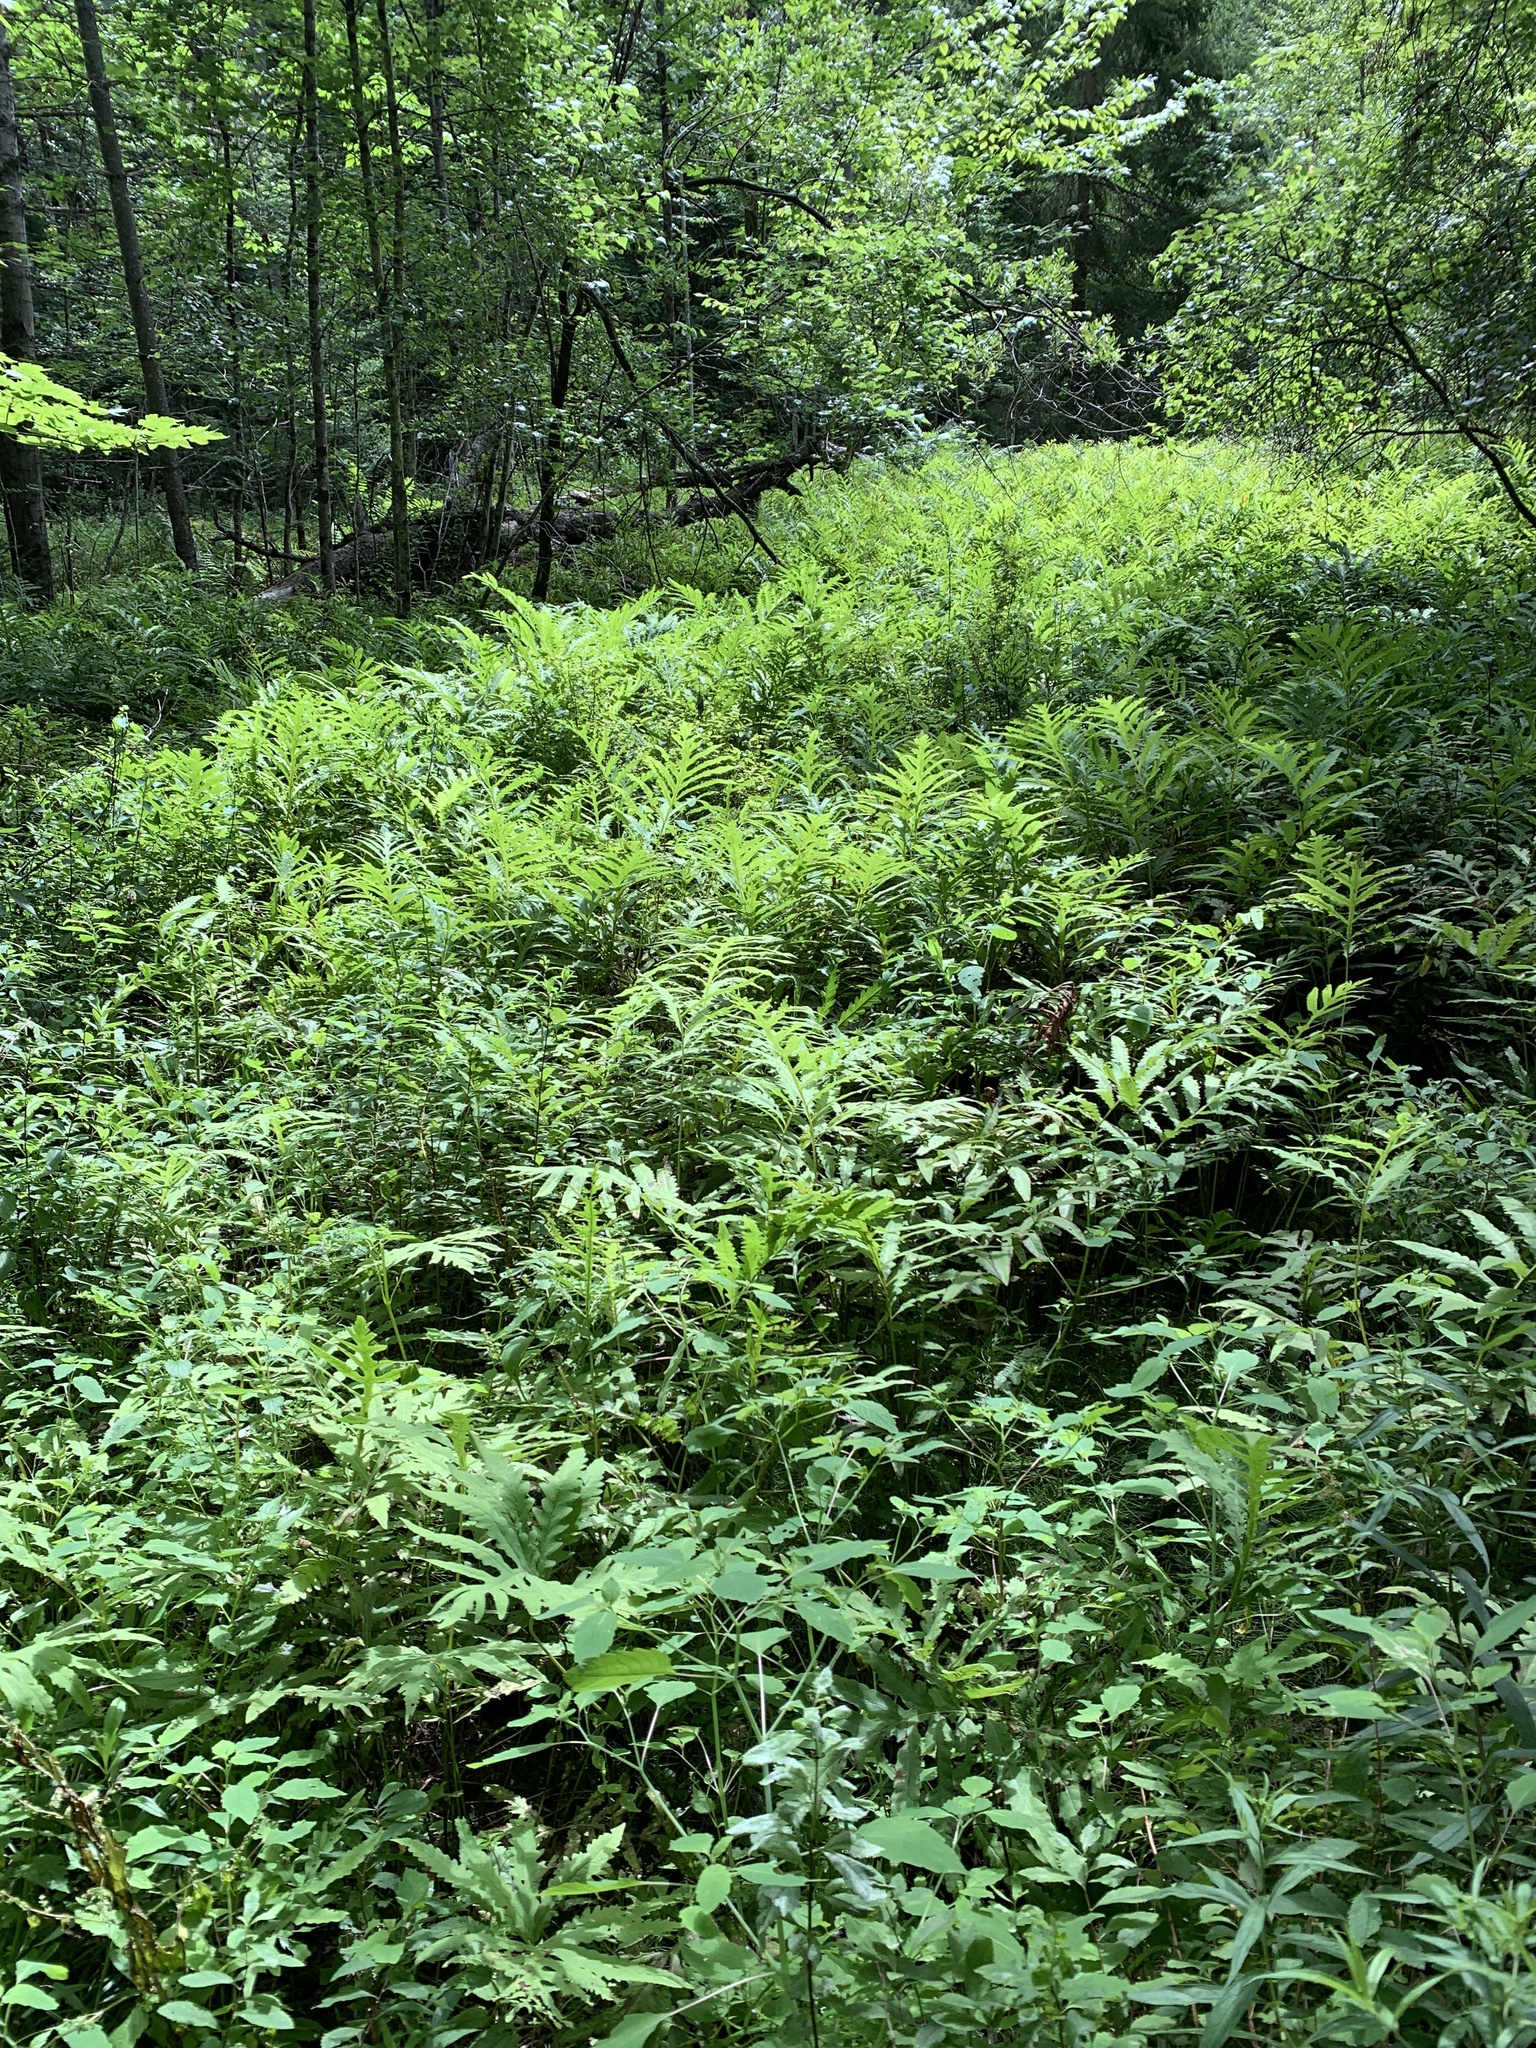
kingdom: Plantae
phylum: Tracheophyta
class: Polypodiopsida
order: Polypodiales
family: Onocleaceae
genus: Onoclea
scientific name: Onoclea sensibilis
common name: Sensitive fern
